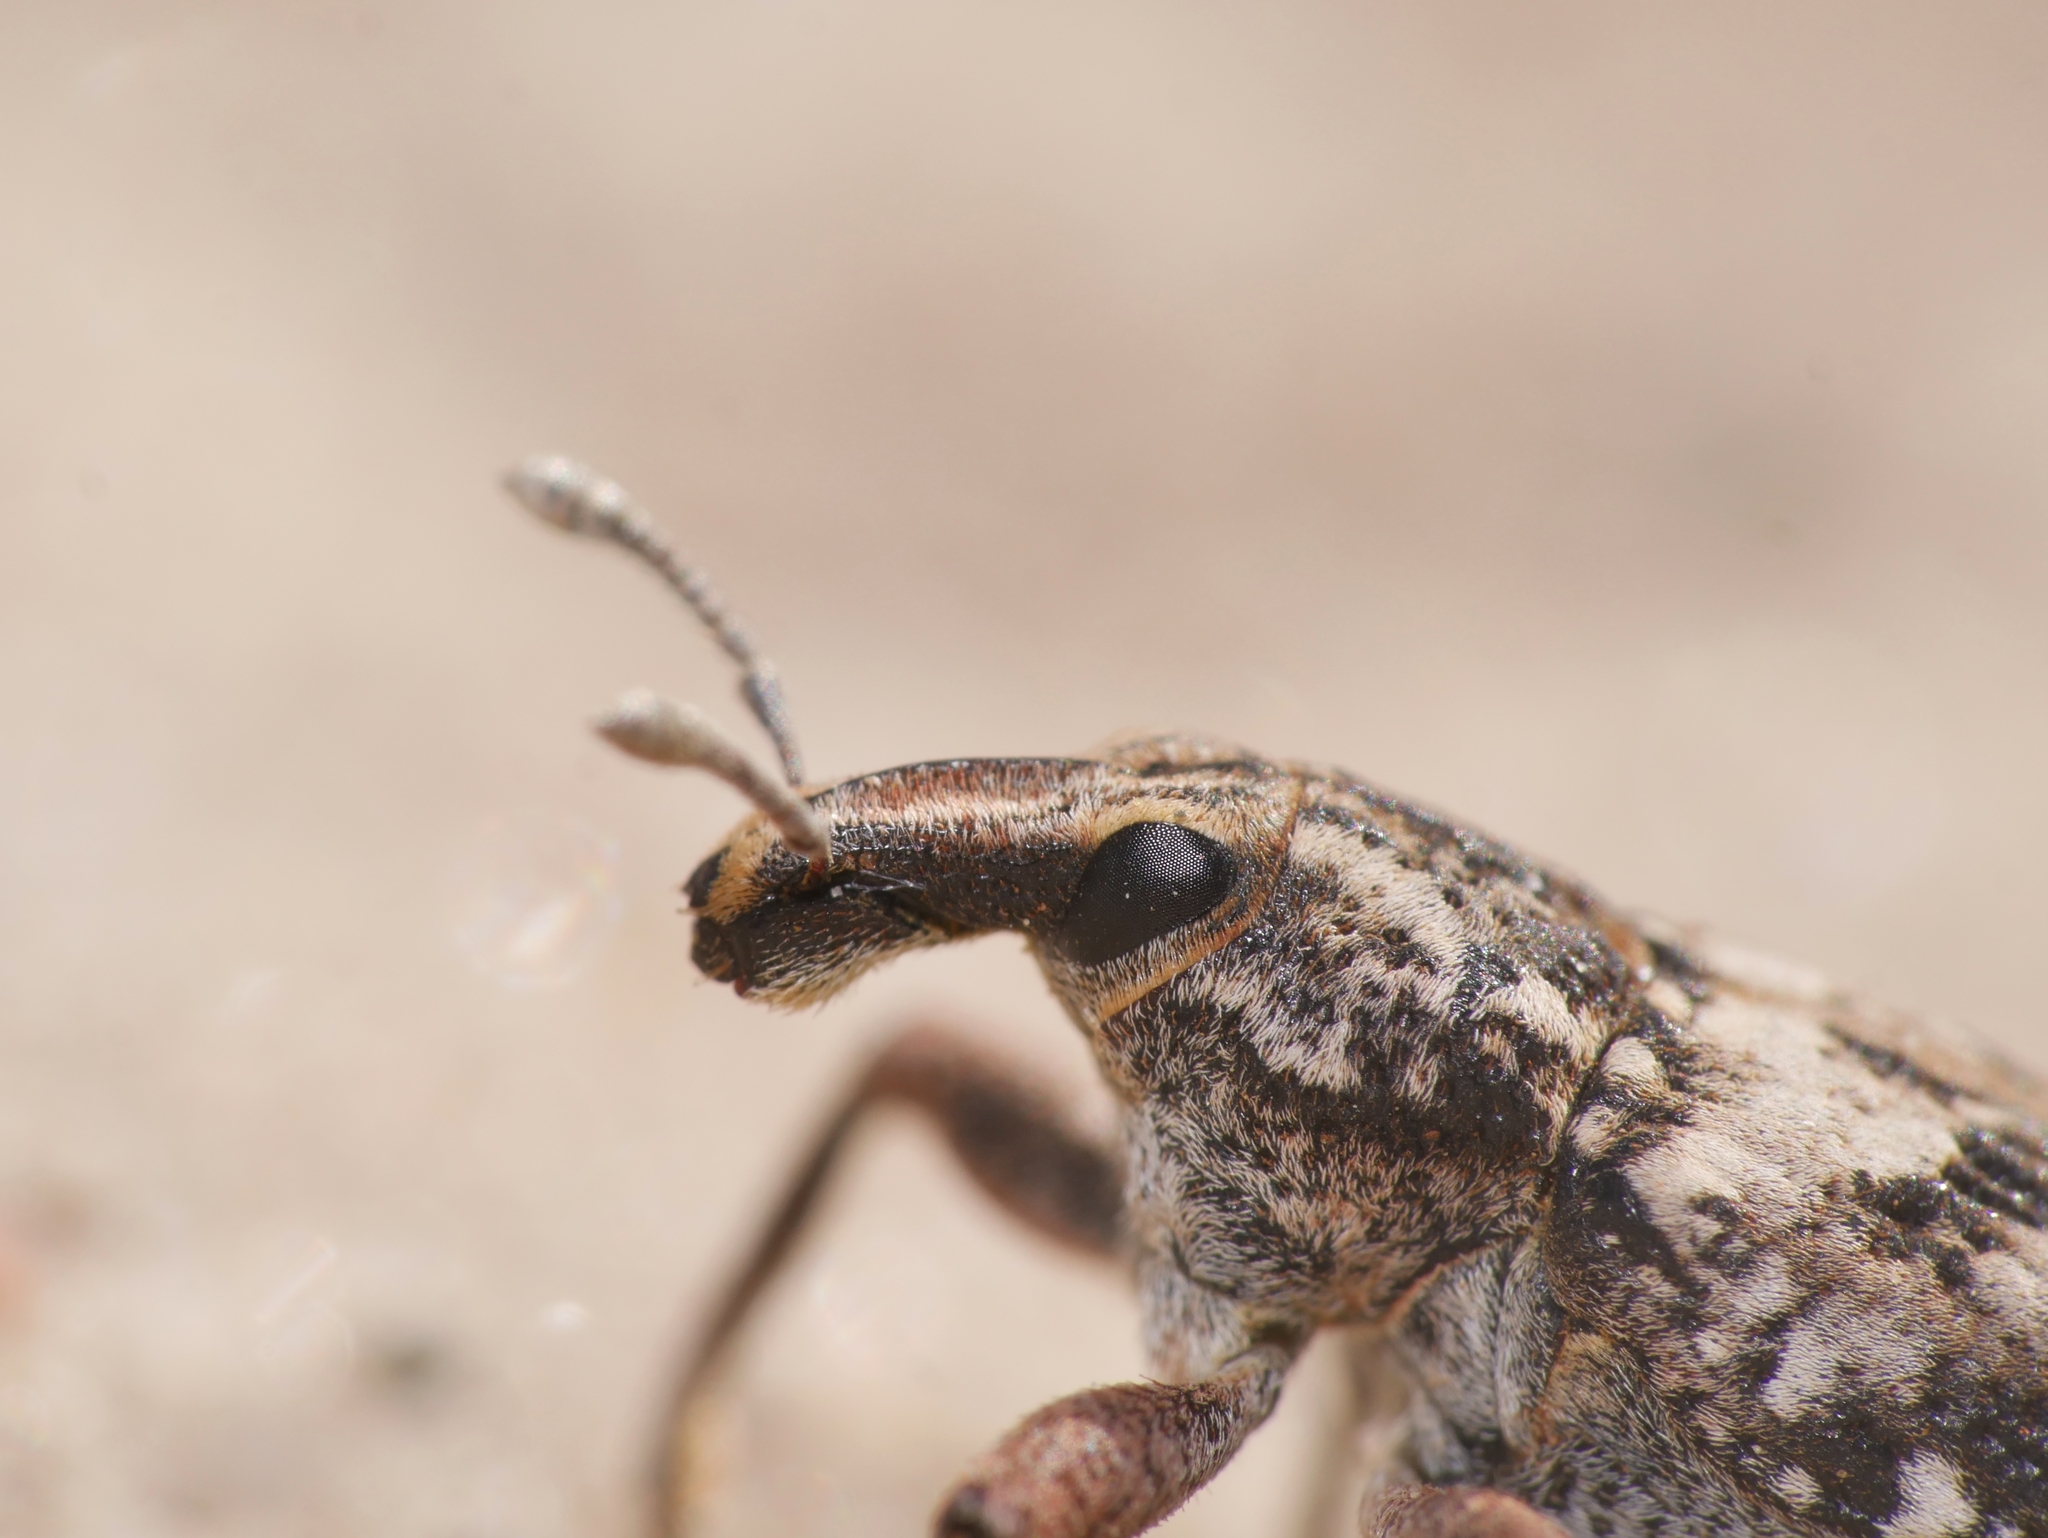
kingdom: Animalia
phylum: Arthropoda
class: Insecta
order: Coleoptera
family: Curculionidae
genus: Coniocleonus
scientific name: Coniocleonus turbatus
